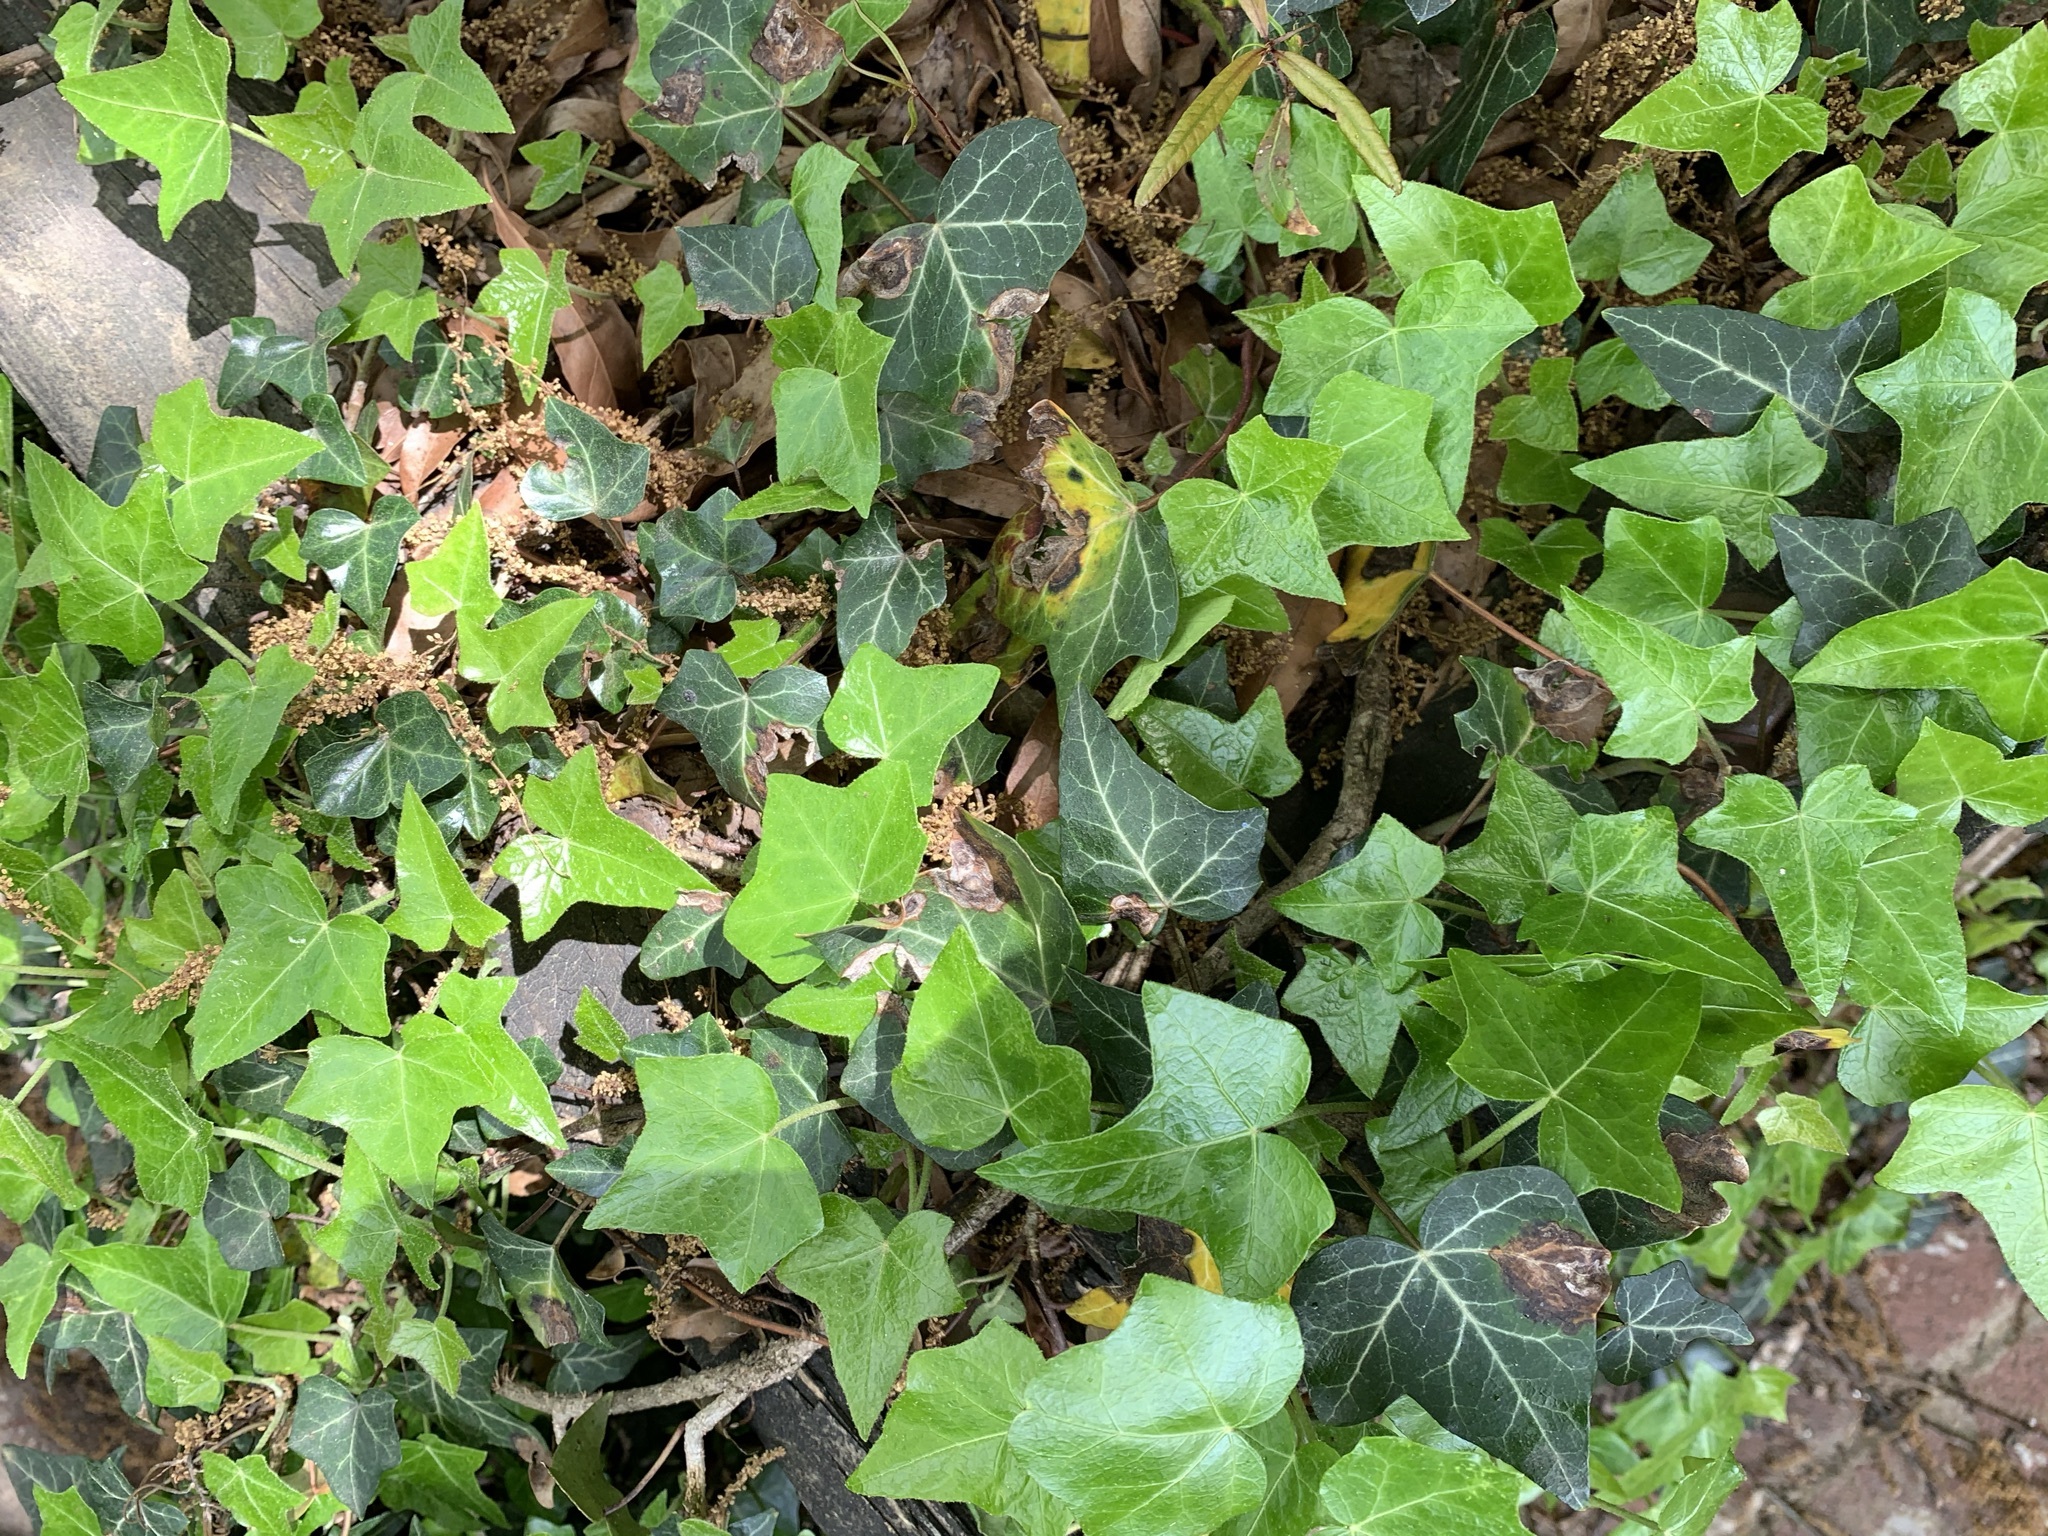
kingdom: Plantae
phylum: Tracheophyta
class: Magnoliopsida
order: Apiales
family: Araliaceae
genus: Hedera
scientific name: Hedera helix
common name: Ivy
